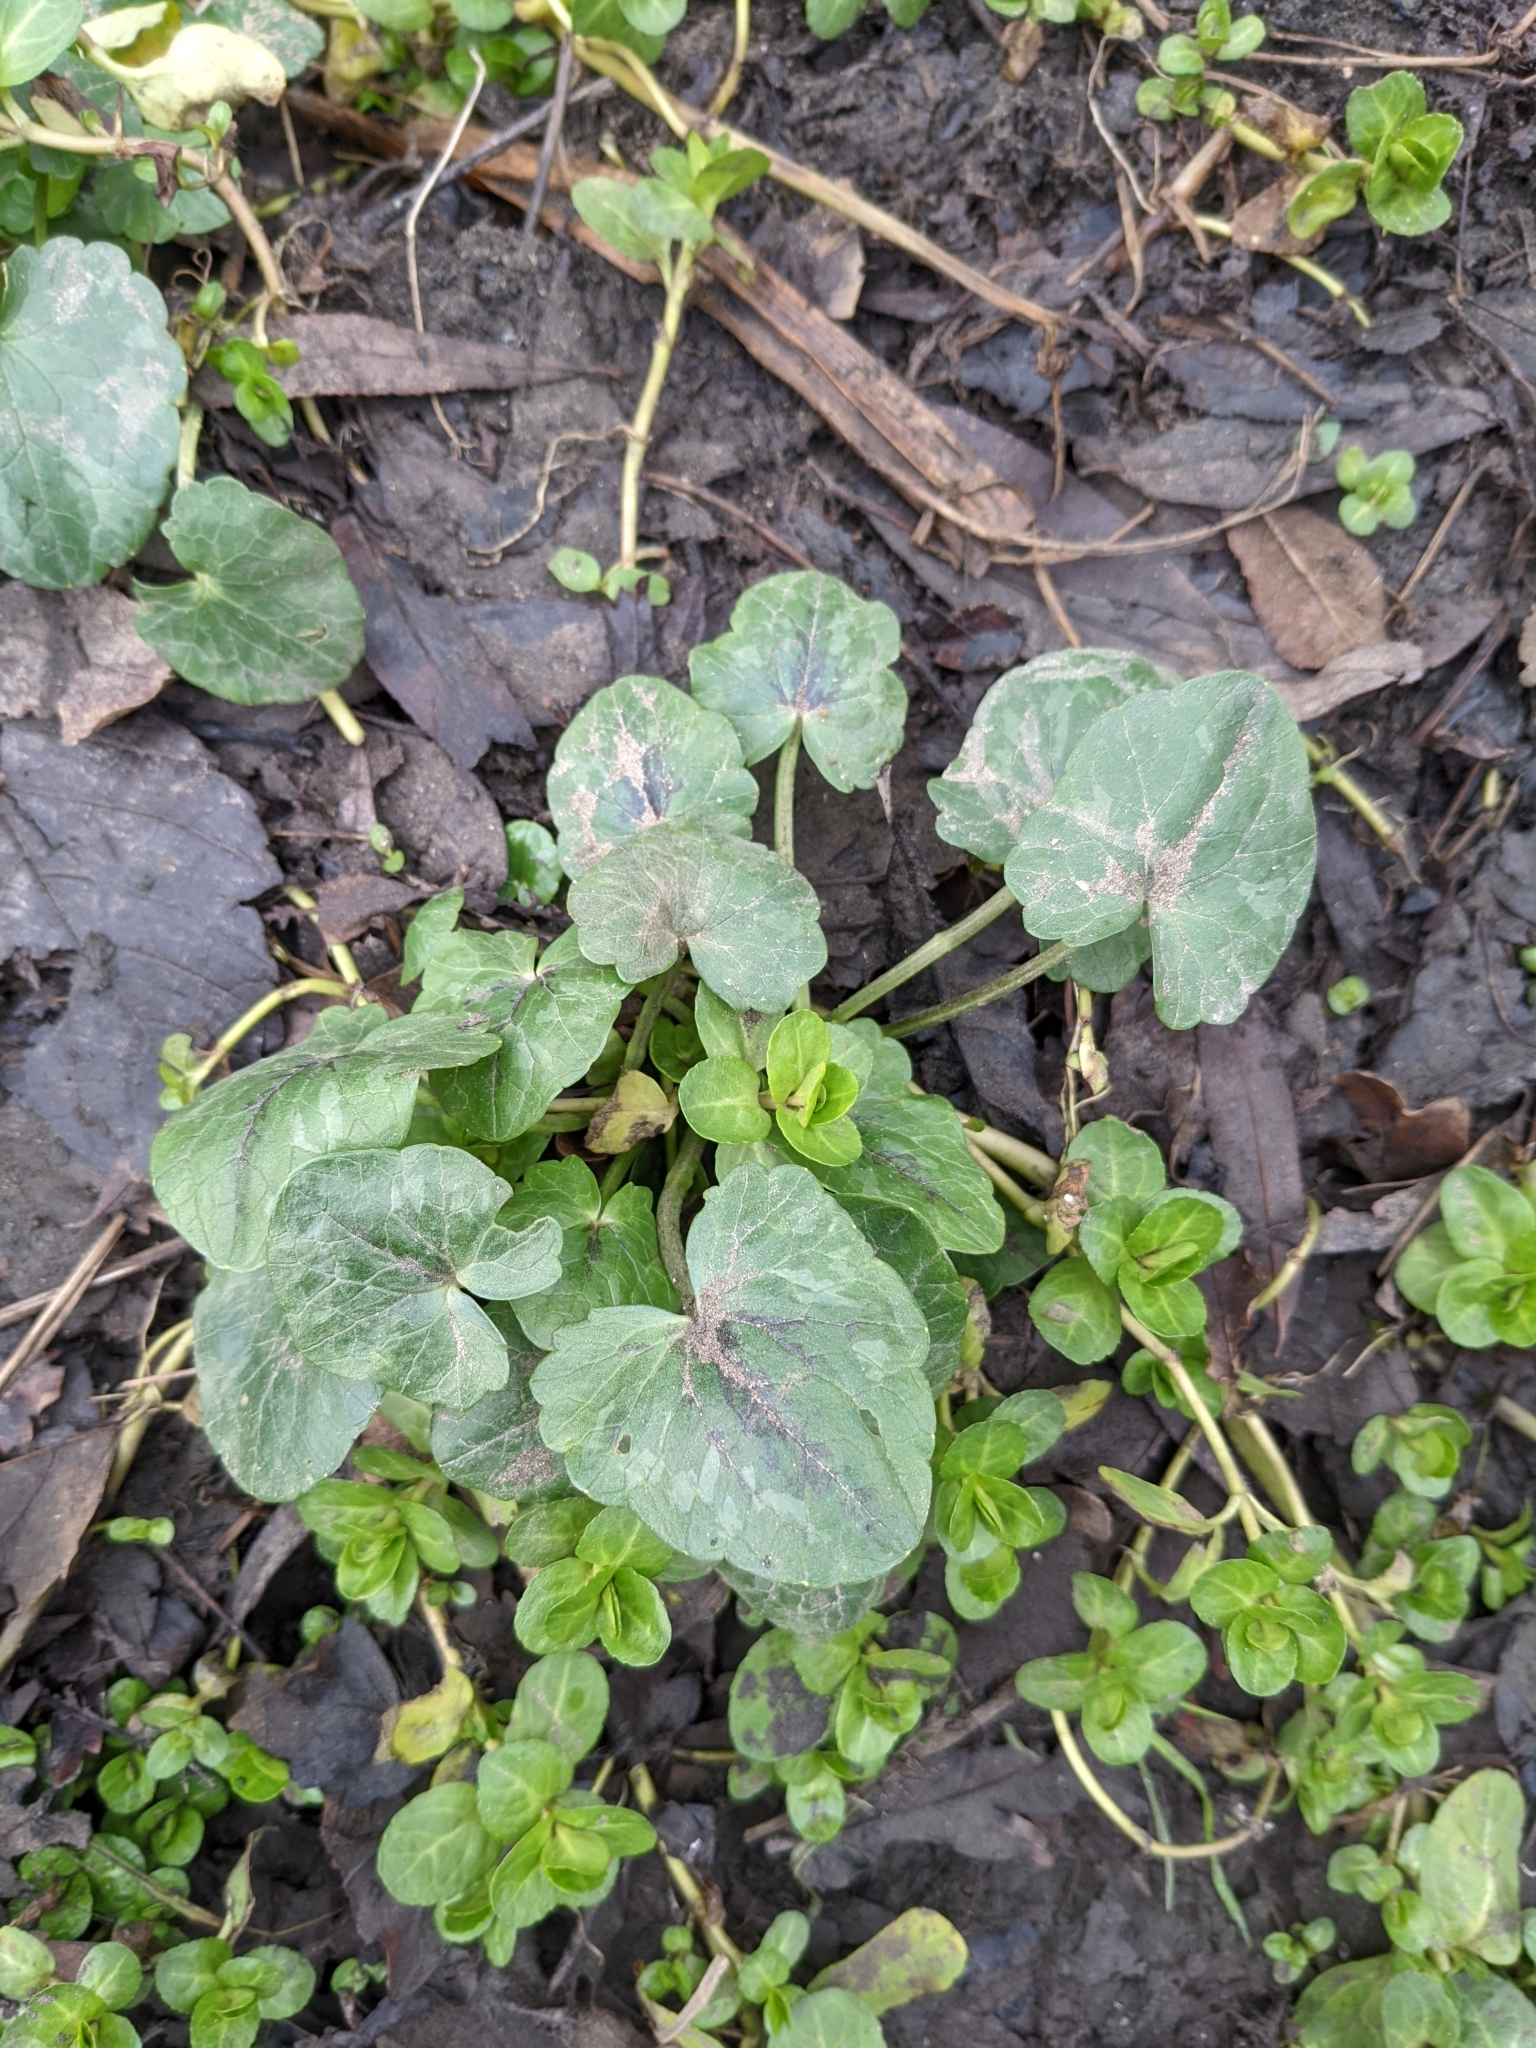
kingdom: Plantae
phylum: Tracheophyta
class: Magnoliopsida
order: Ranunculales
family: Ranunculaceae
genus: Ficaria
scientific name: Ficaria verna
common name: Lesser celandine
